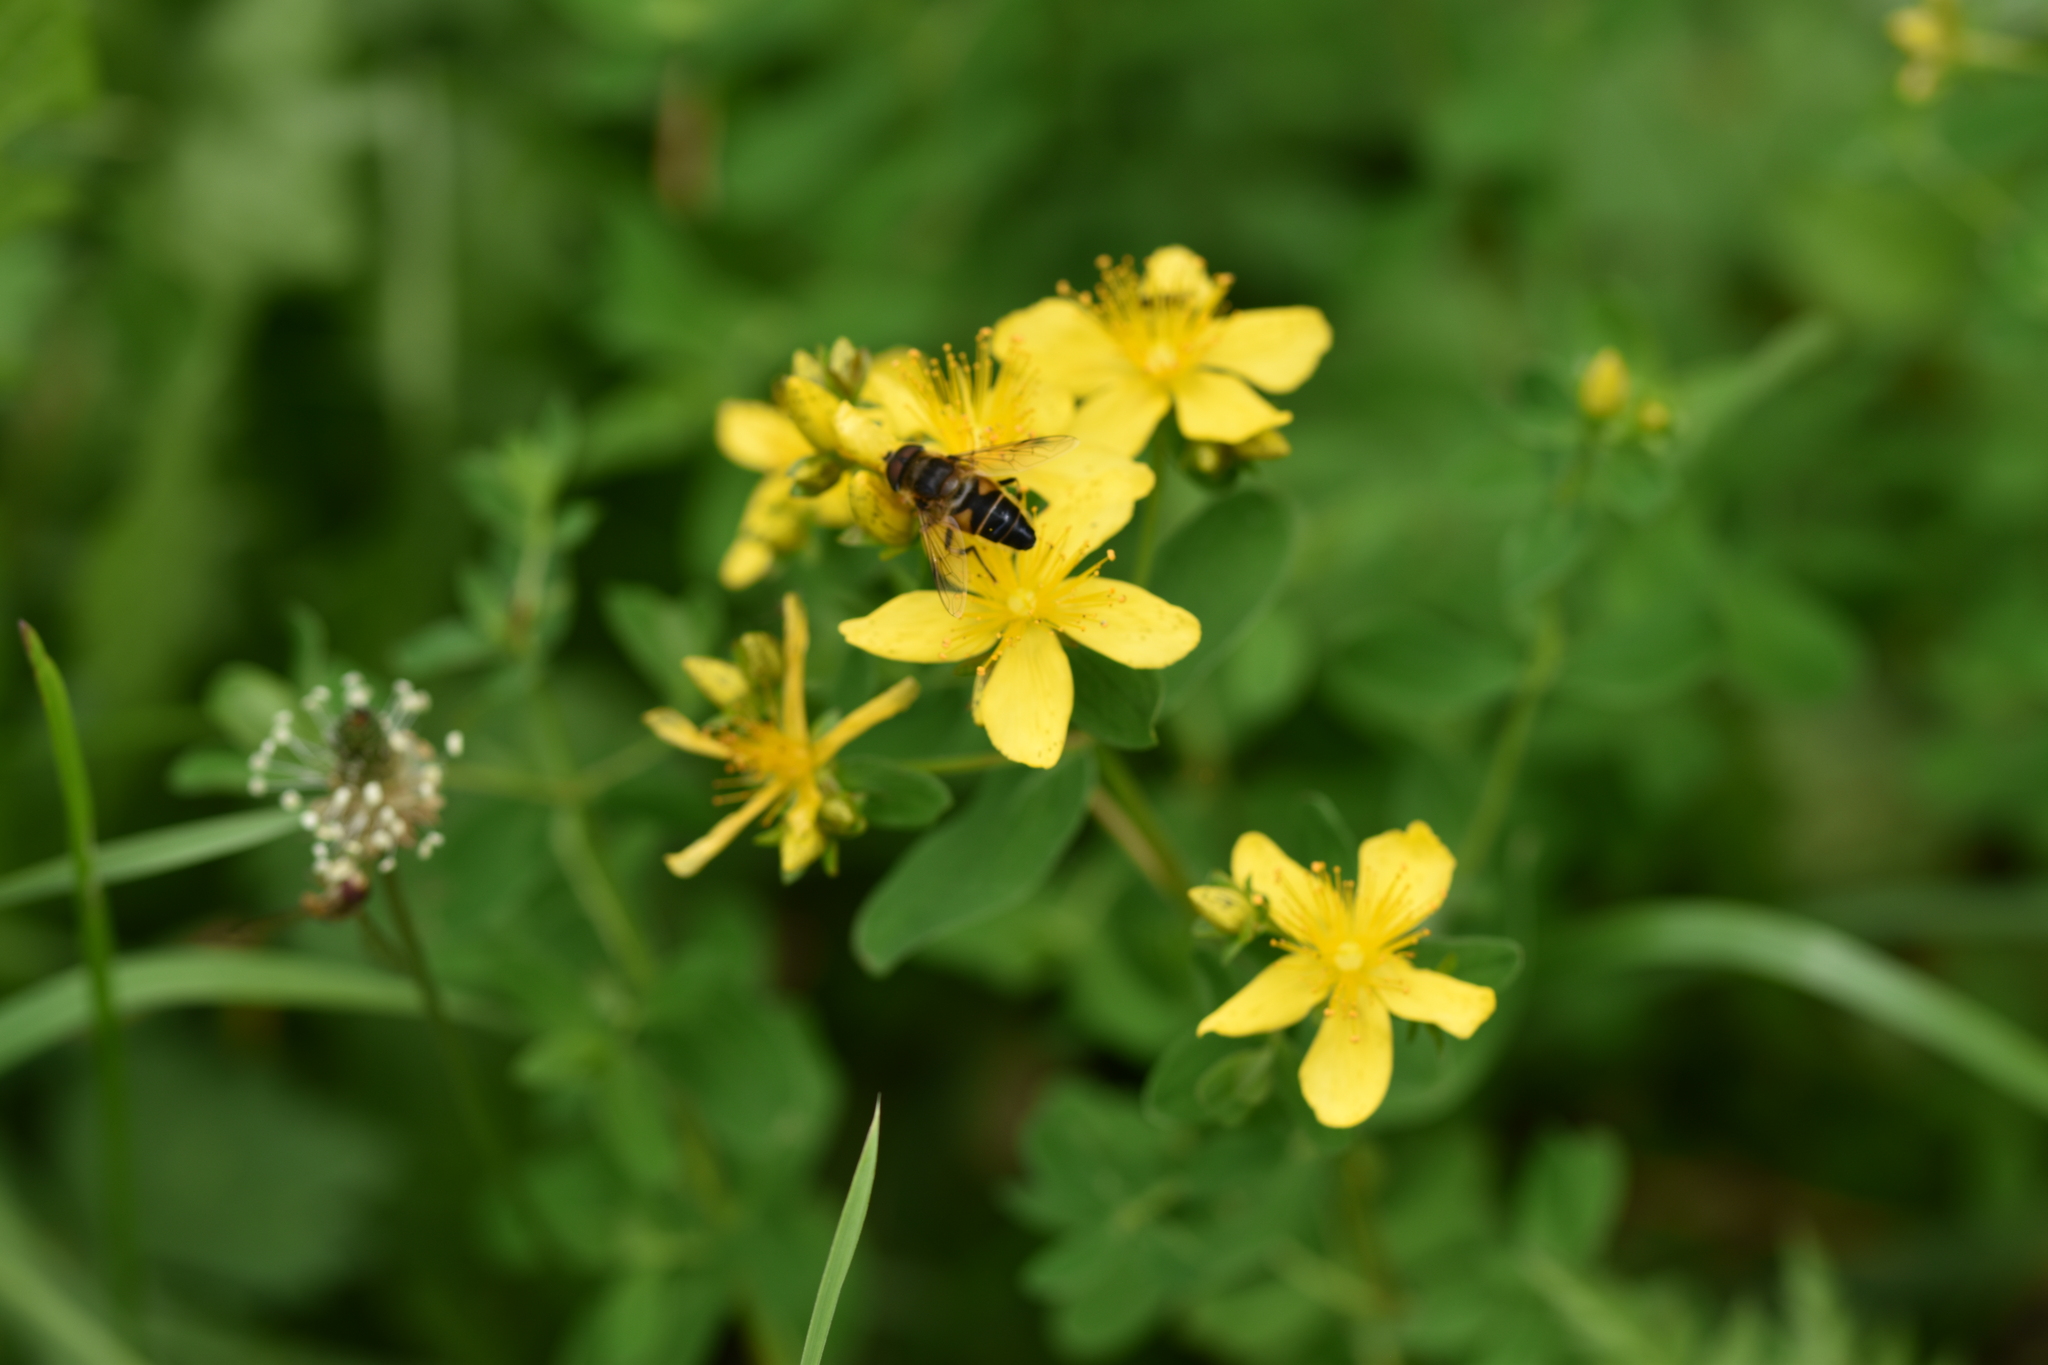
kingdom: Animalia
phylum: Arthropoda
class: Insecta
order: Diptera
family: Syrphidae
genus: Eristalis
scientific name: Eristalis pertinax
